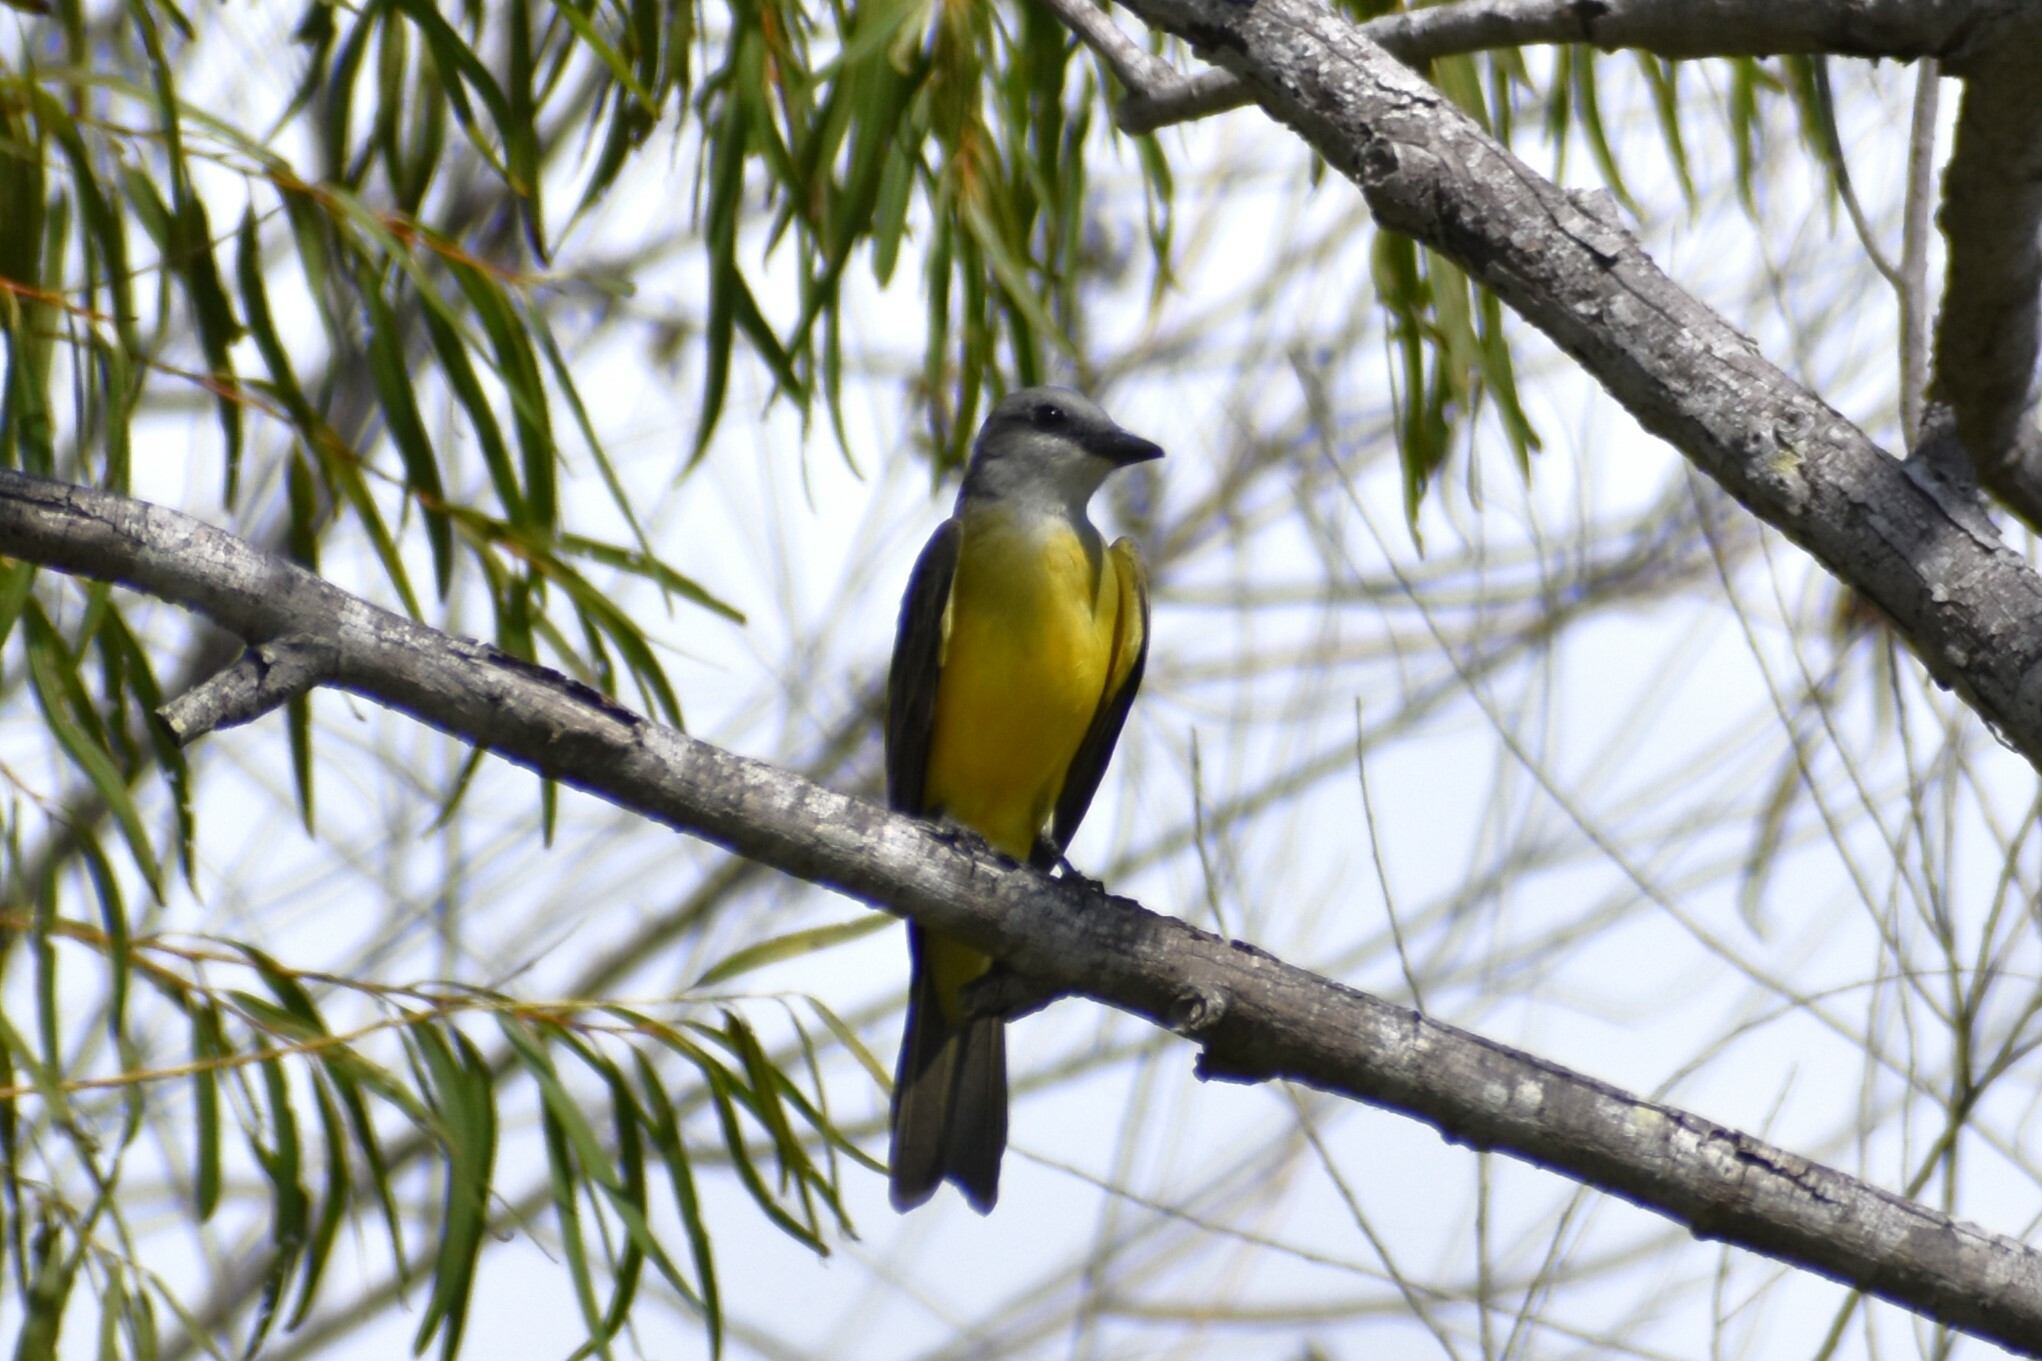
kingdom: Animalia
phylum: Chordata
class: Aves
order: Passeriformes
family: Tyrannidae
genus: Tyrannus
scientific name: Tyrannus couchii
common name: Couch's kingbird
